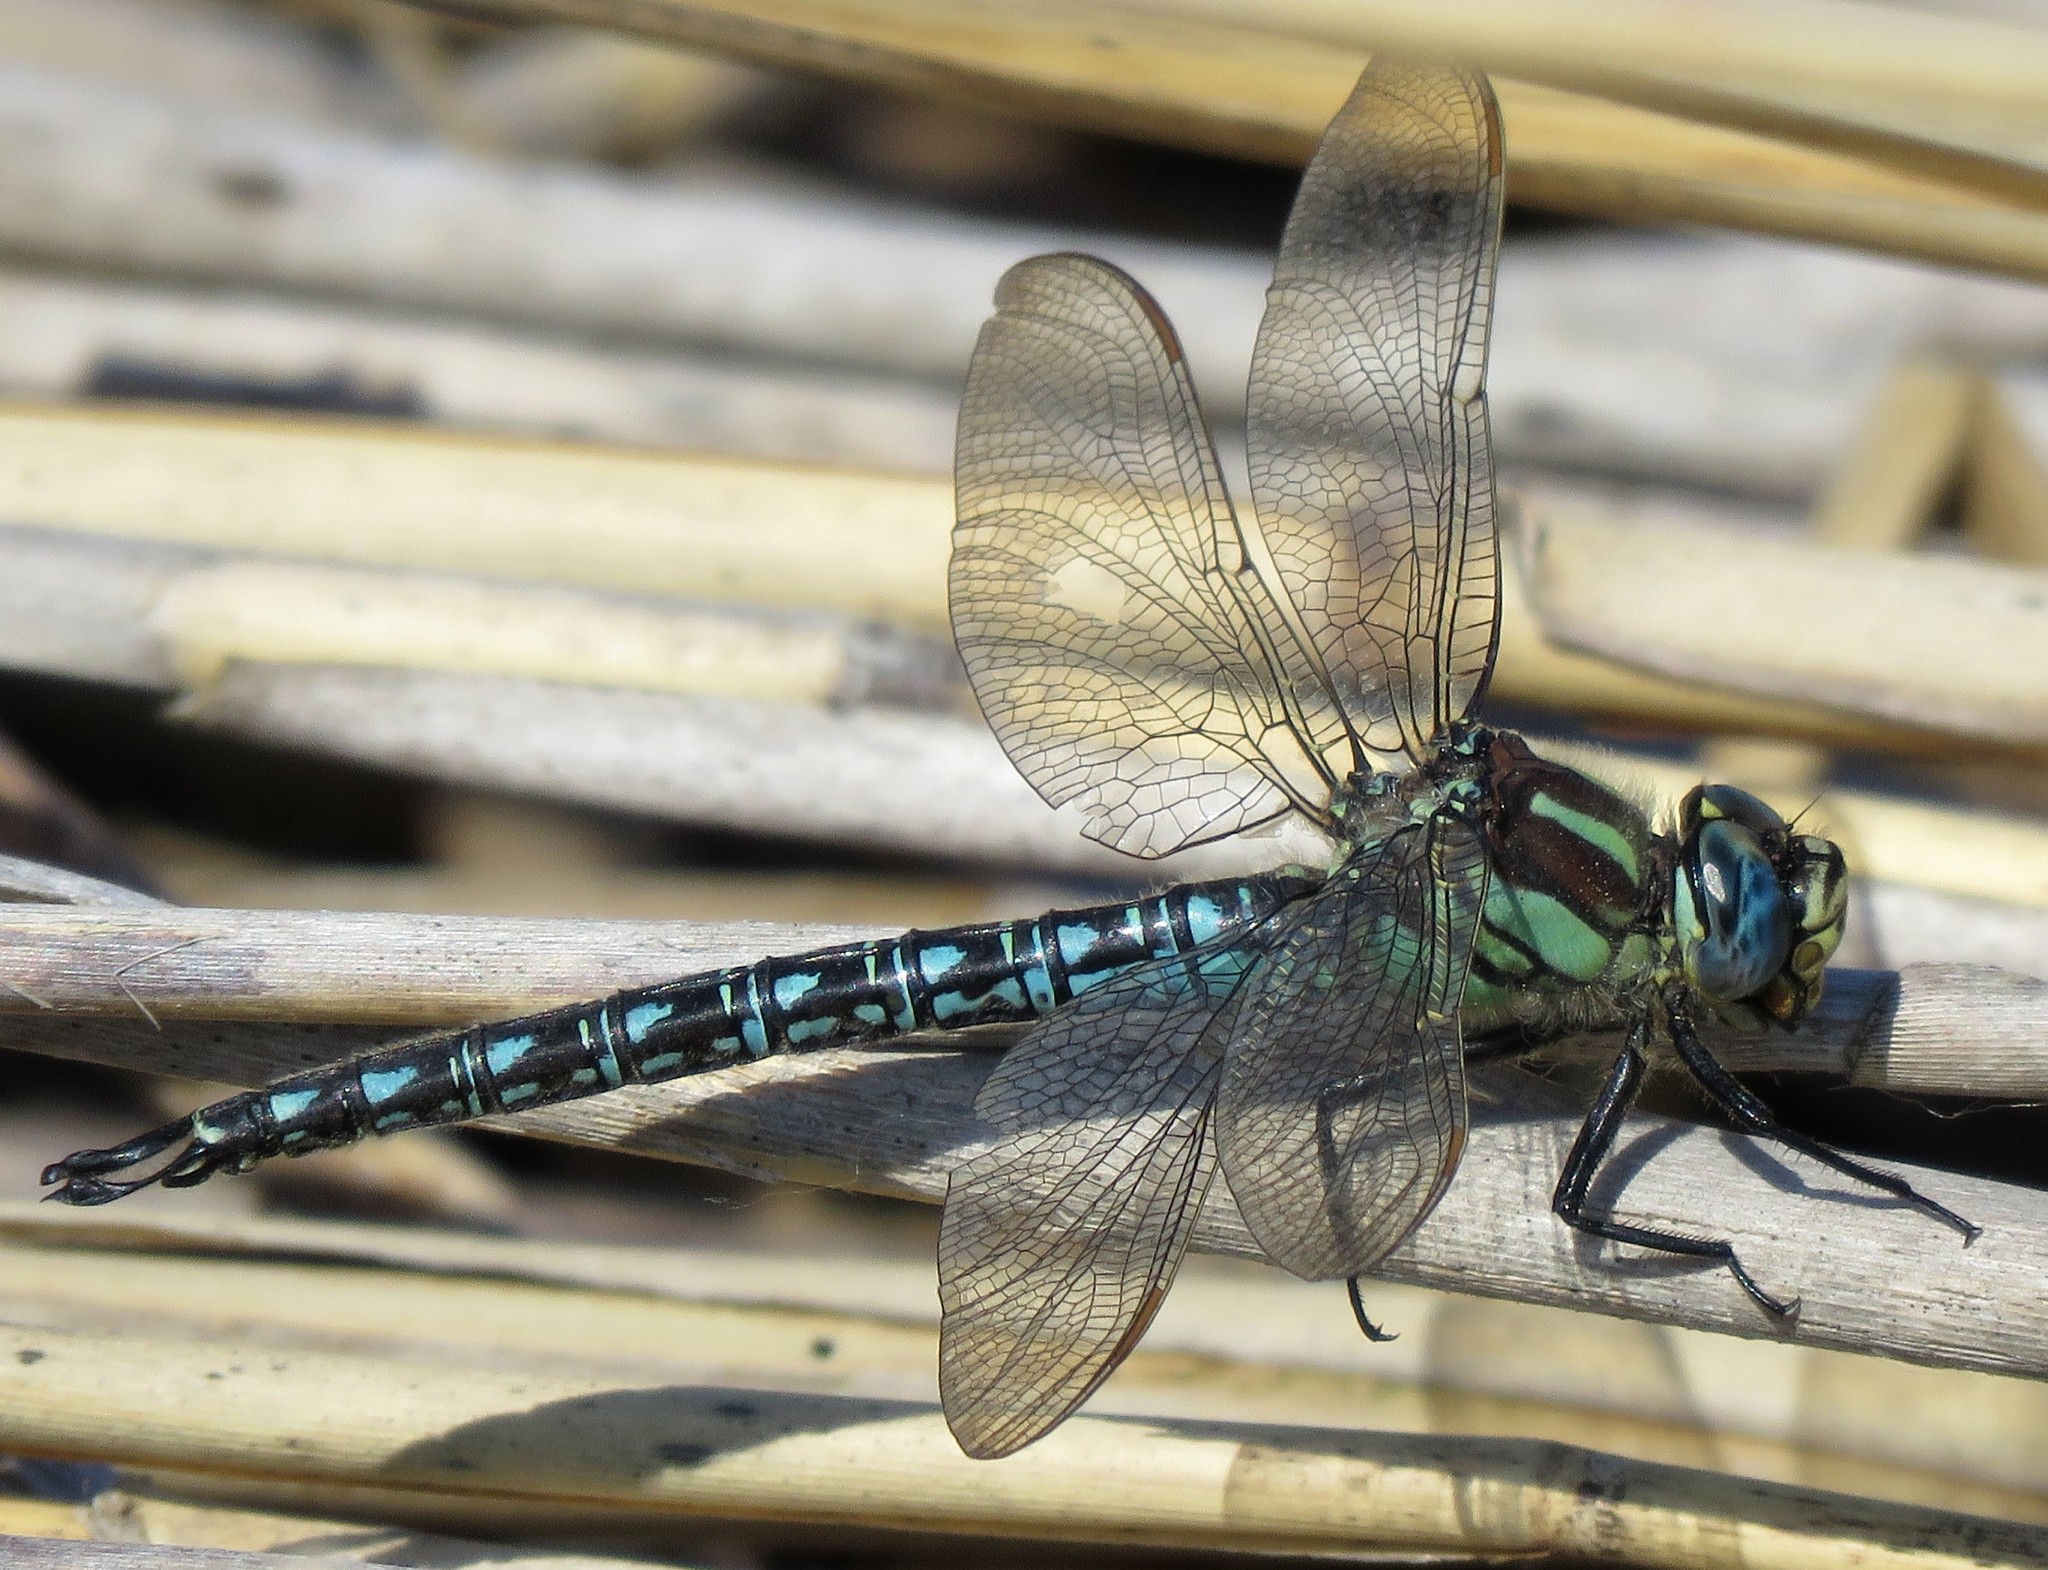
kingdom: Animalia
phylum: Arthropoda
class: Insecta
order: Odonata
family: Aeshnidae
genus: Brachytron
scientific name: Brachytron pratense
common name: Hairy hawker
